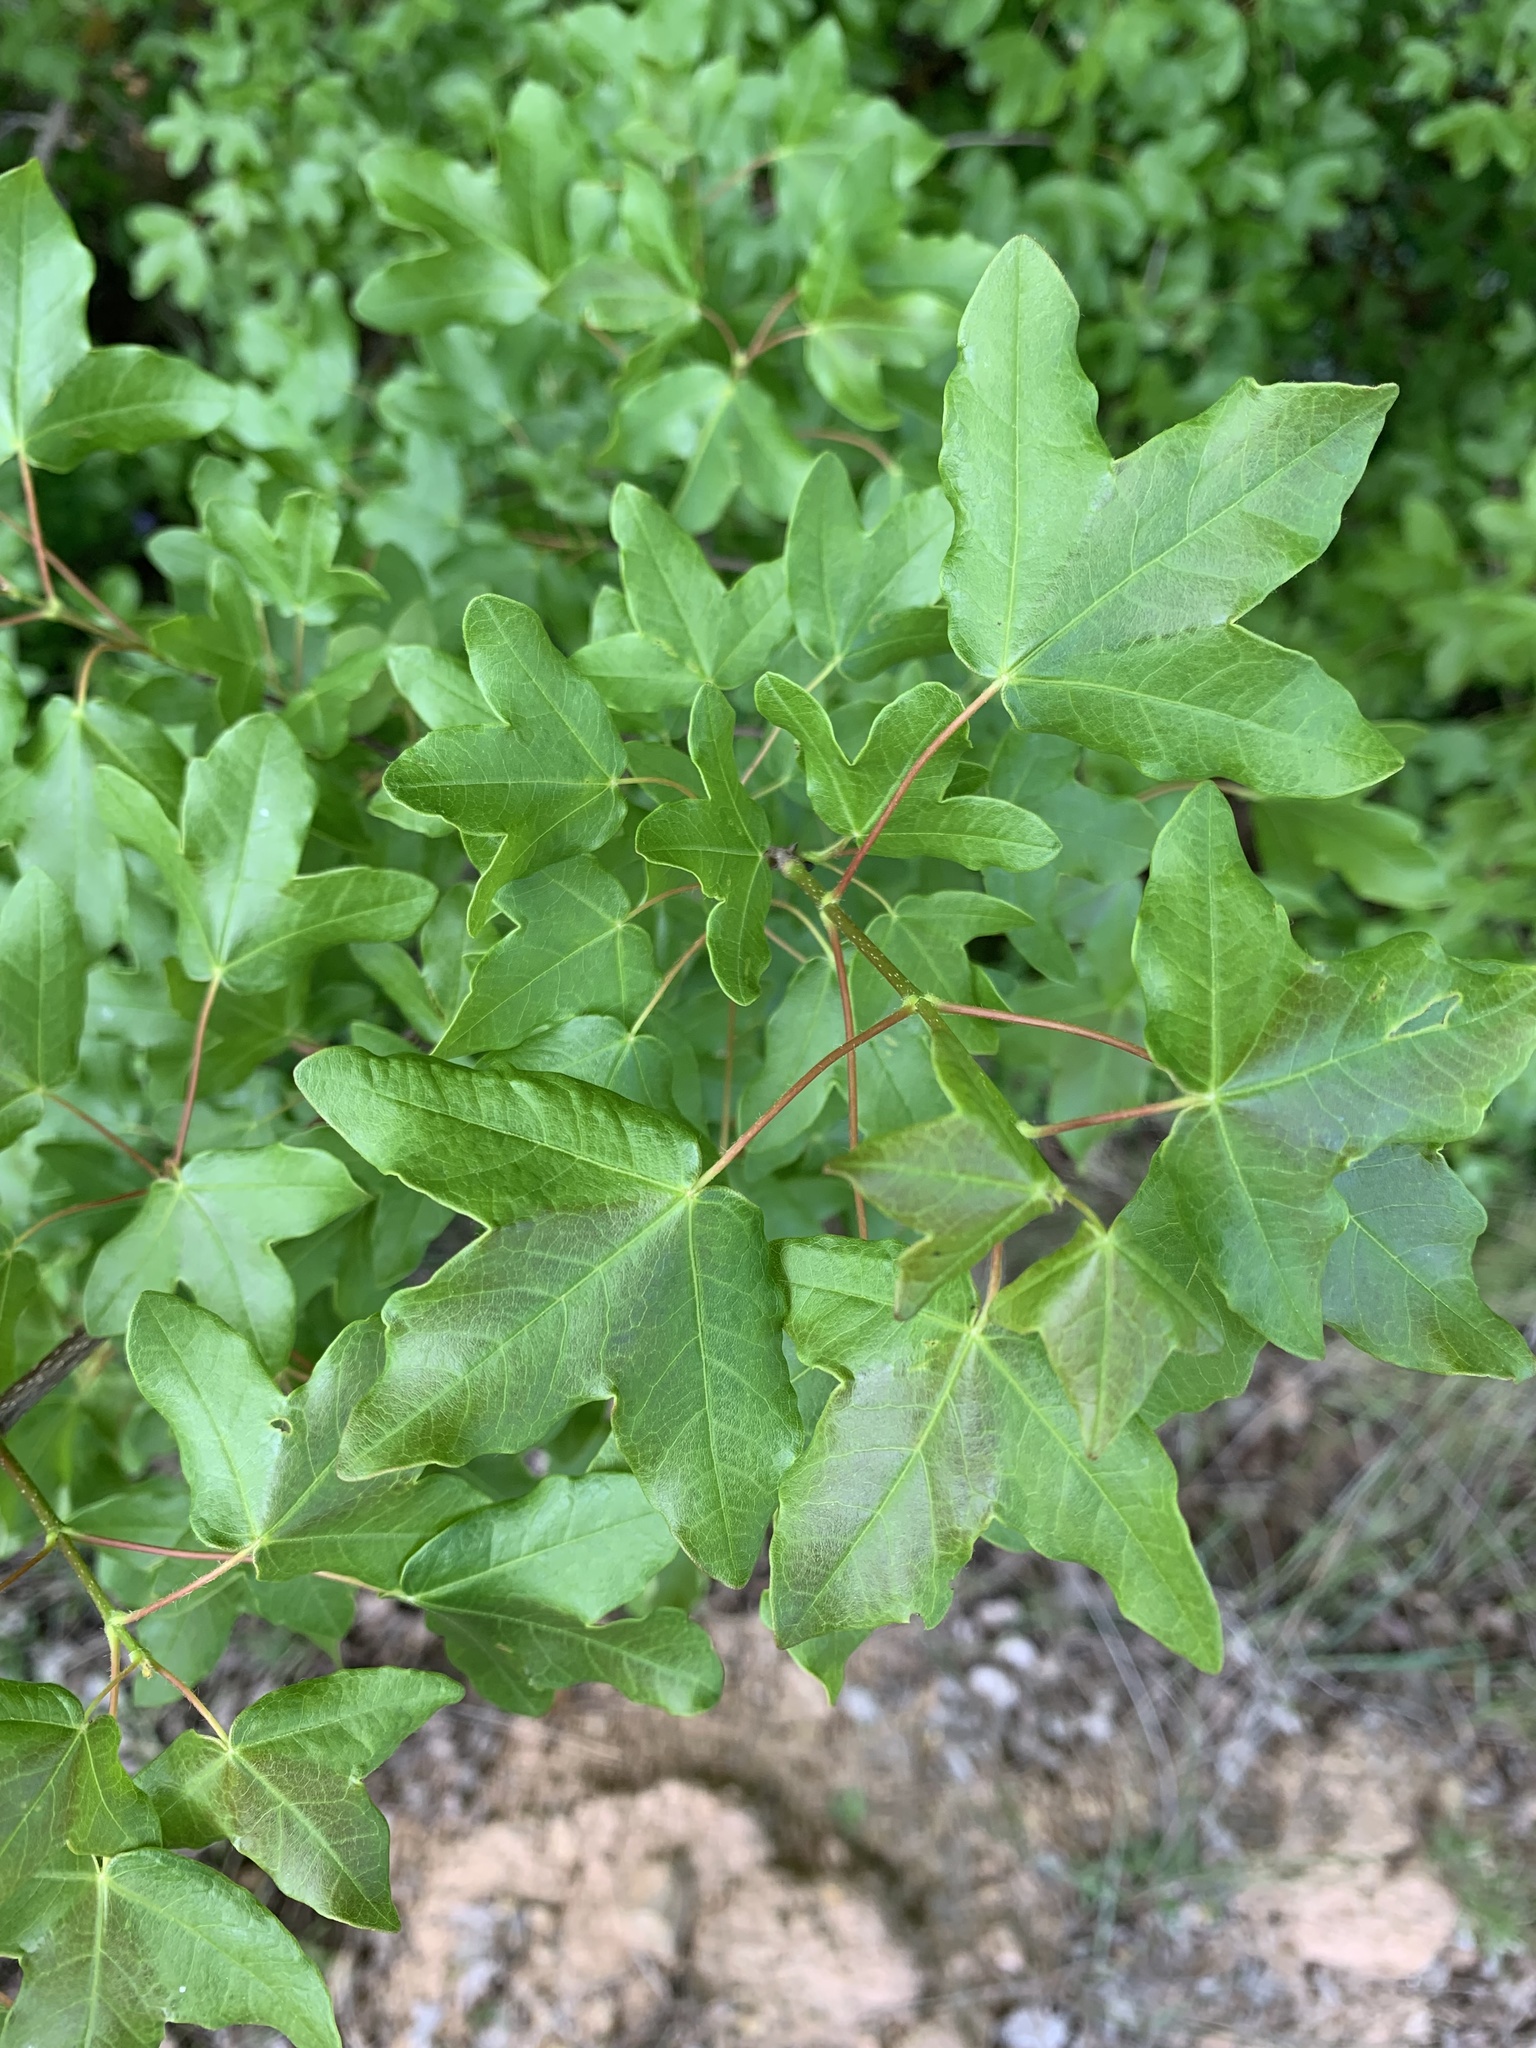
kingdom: Plantae
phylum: Tracheophyta
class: Magnoliopsida
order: Sapindales
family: Sapindaceae
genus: Acer
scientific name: Acer monspessulanum
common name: Montpellier maple
